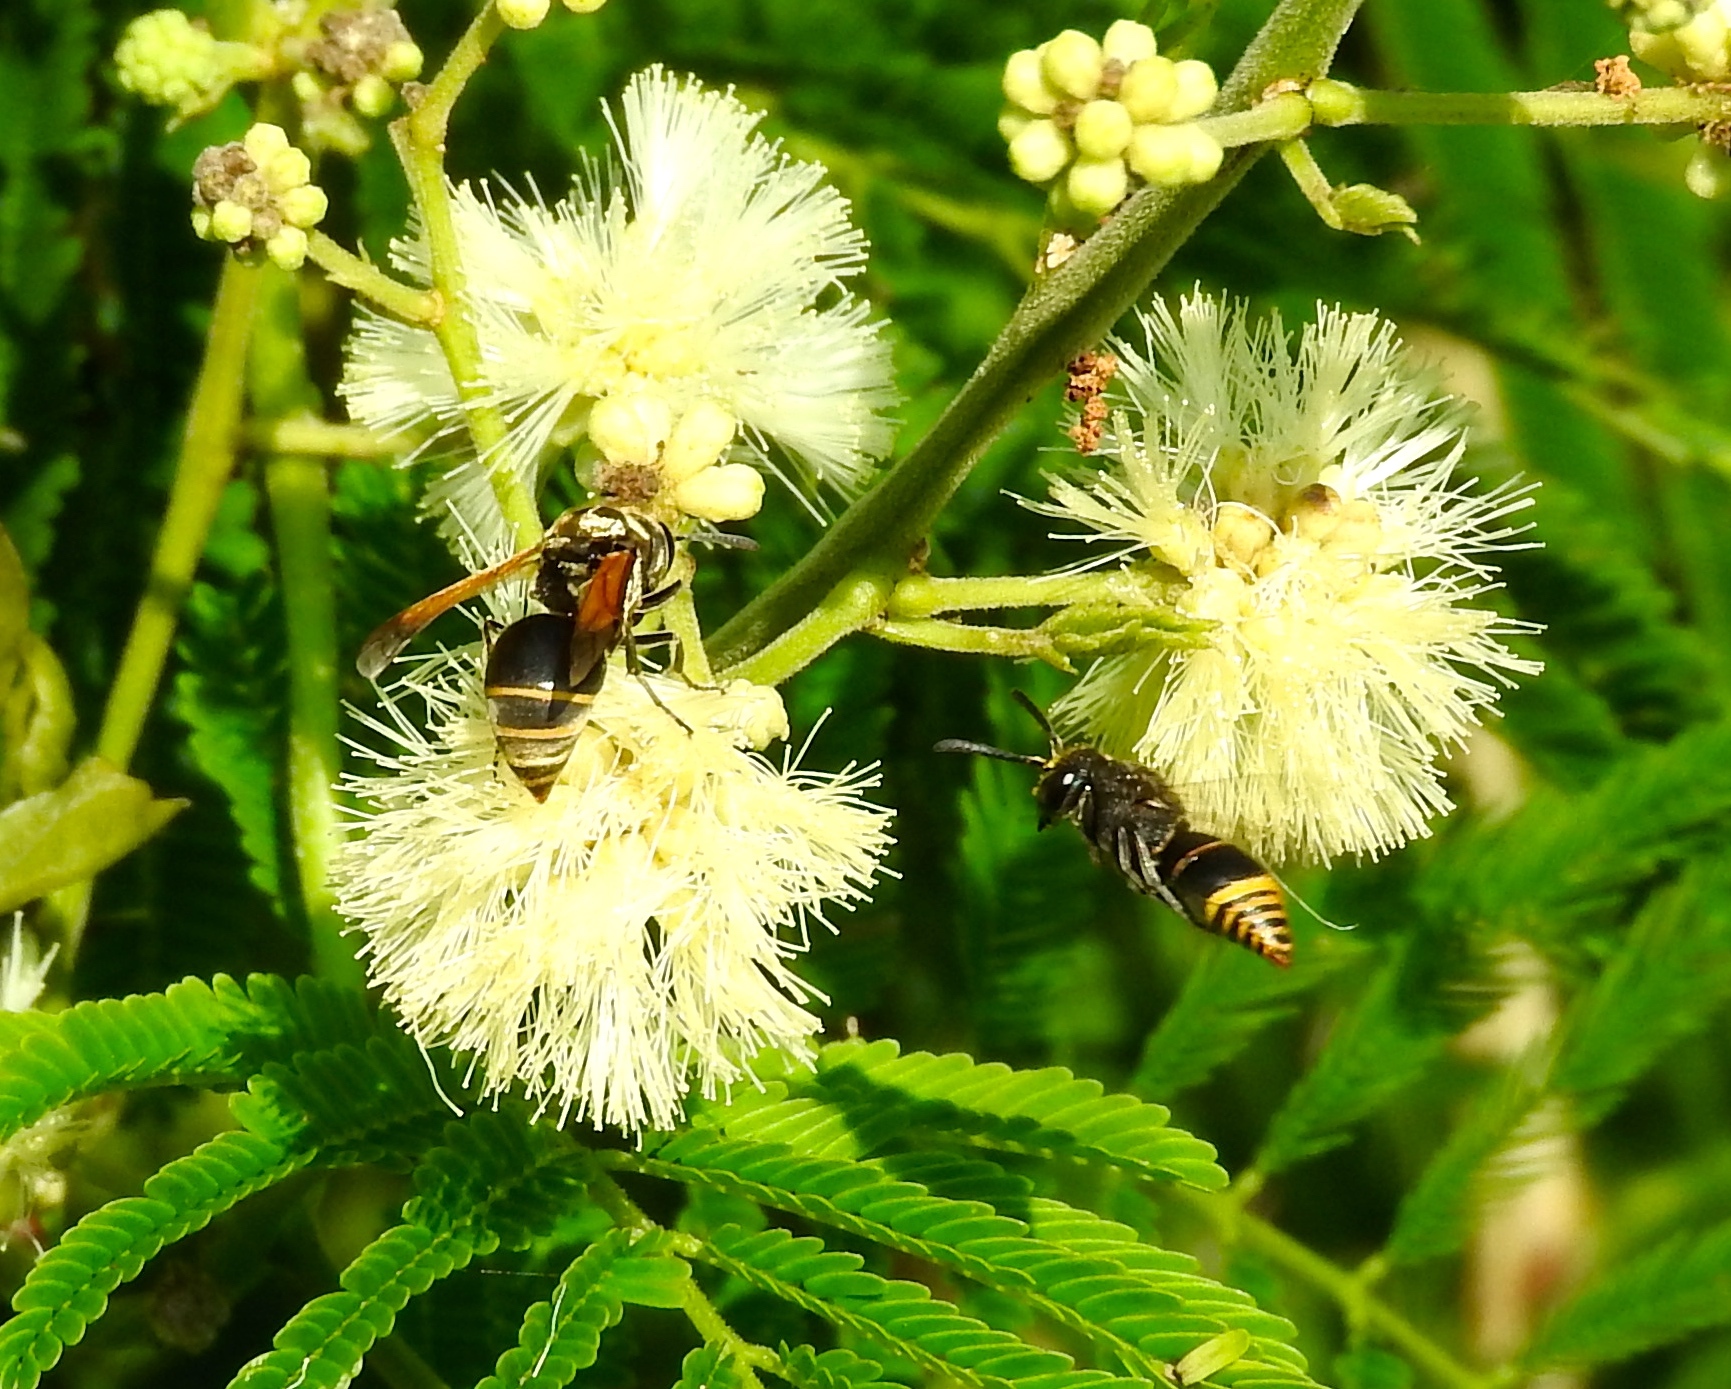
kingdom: Animalia
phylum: Arthropoda
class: Insecta
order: Hymenoptera
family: Vespidae
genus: Brachygastra
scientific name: Brachygastra mellifica
